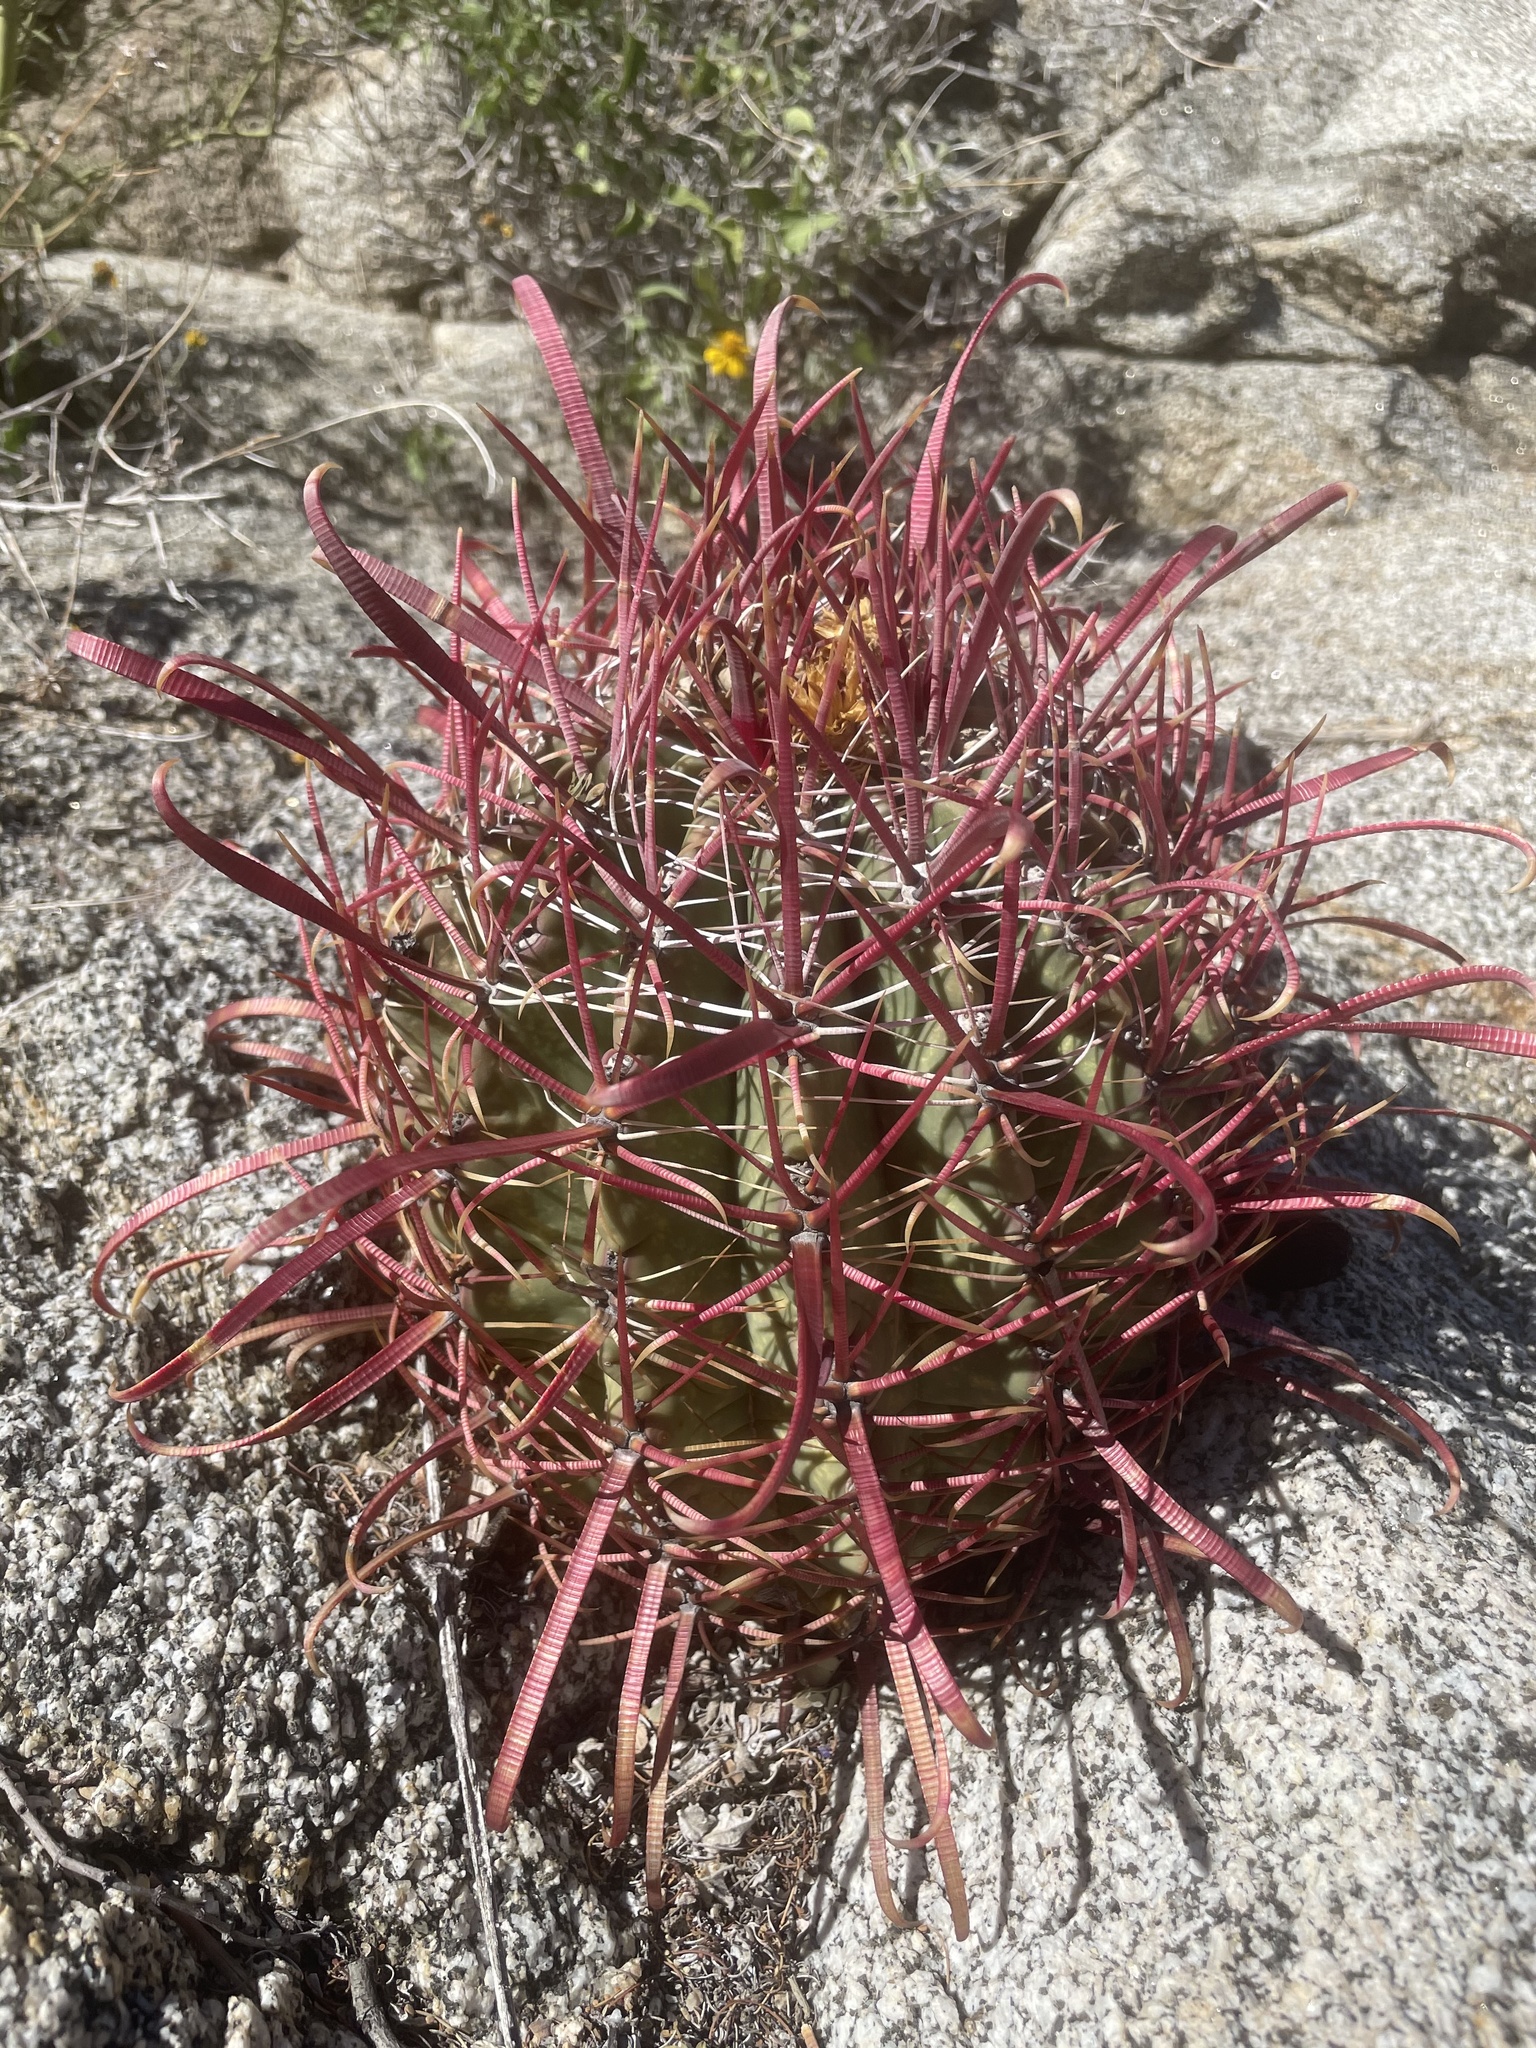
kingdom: Plantae
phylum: Tracheophyta
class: Magnoliopsida
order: Caryophyllales
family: Cactaceae
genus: Ferocactus
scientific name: Ferocactus gracilis
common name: Fire barrel cactus
